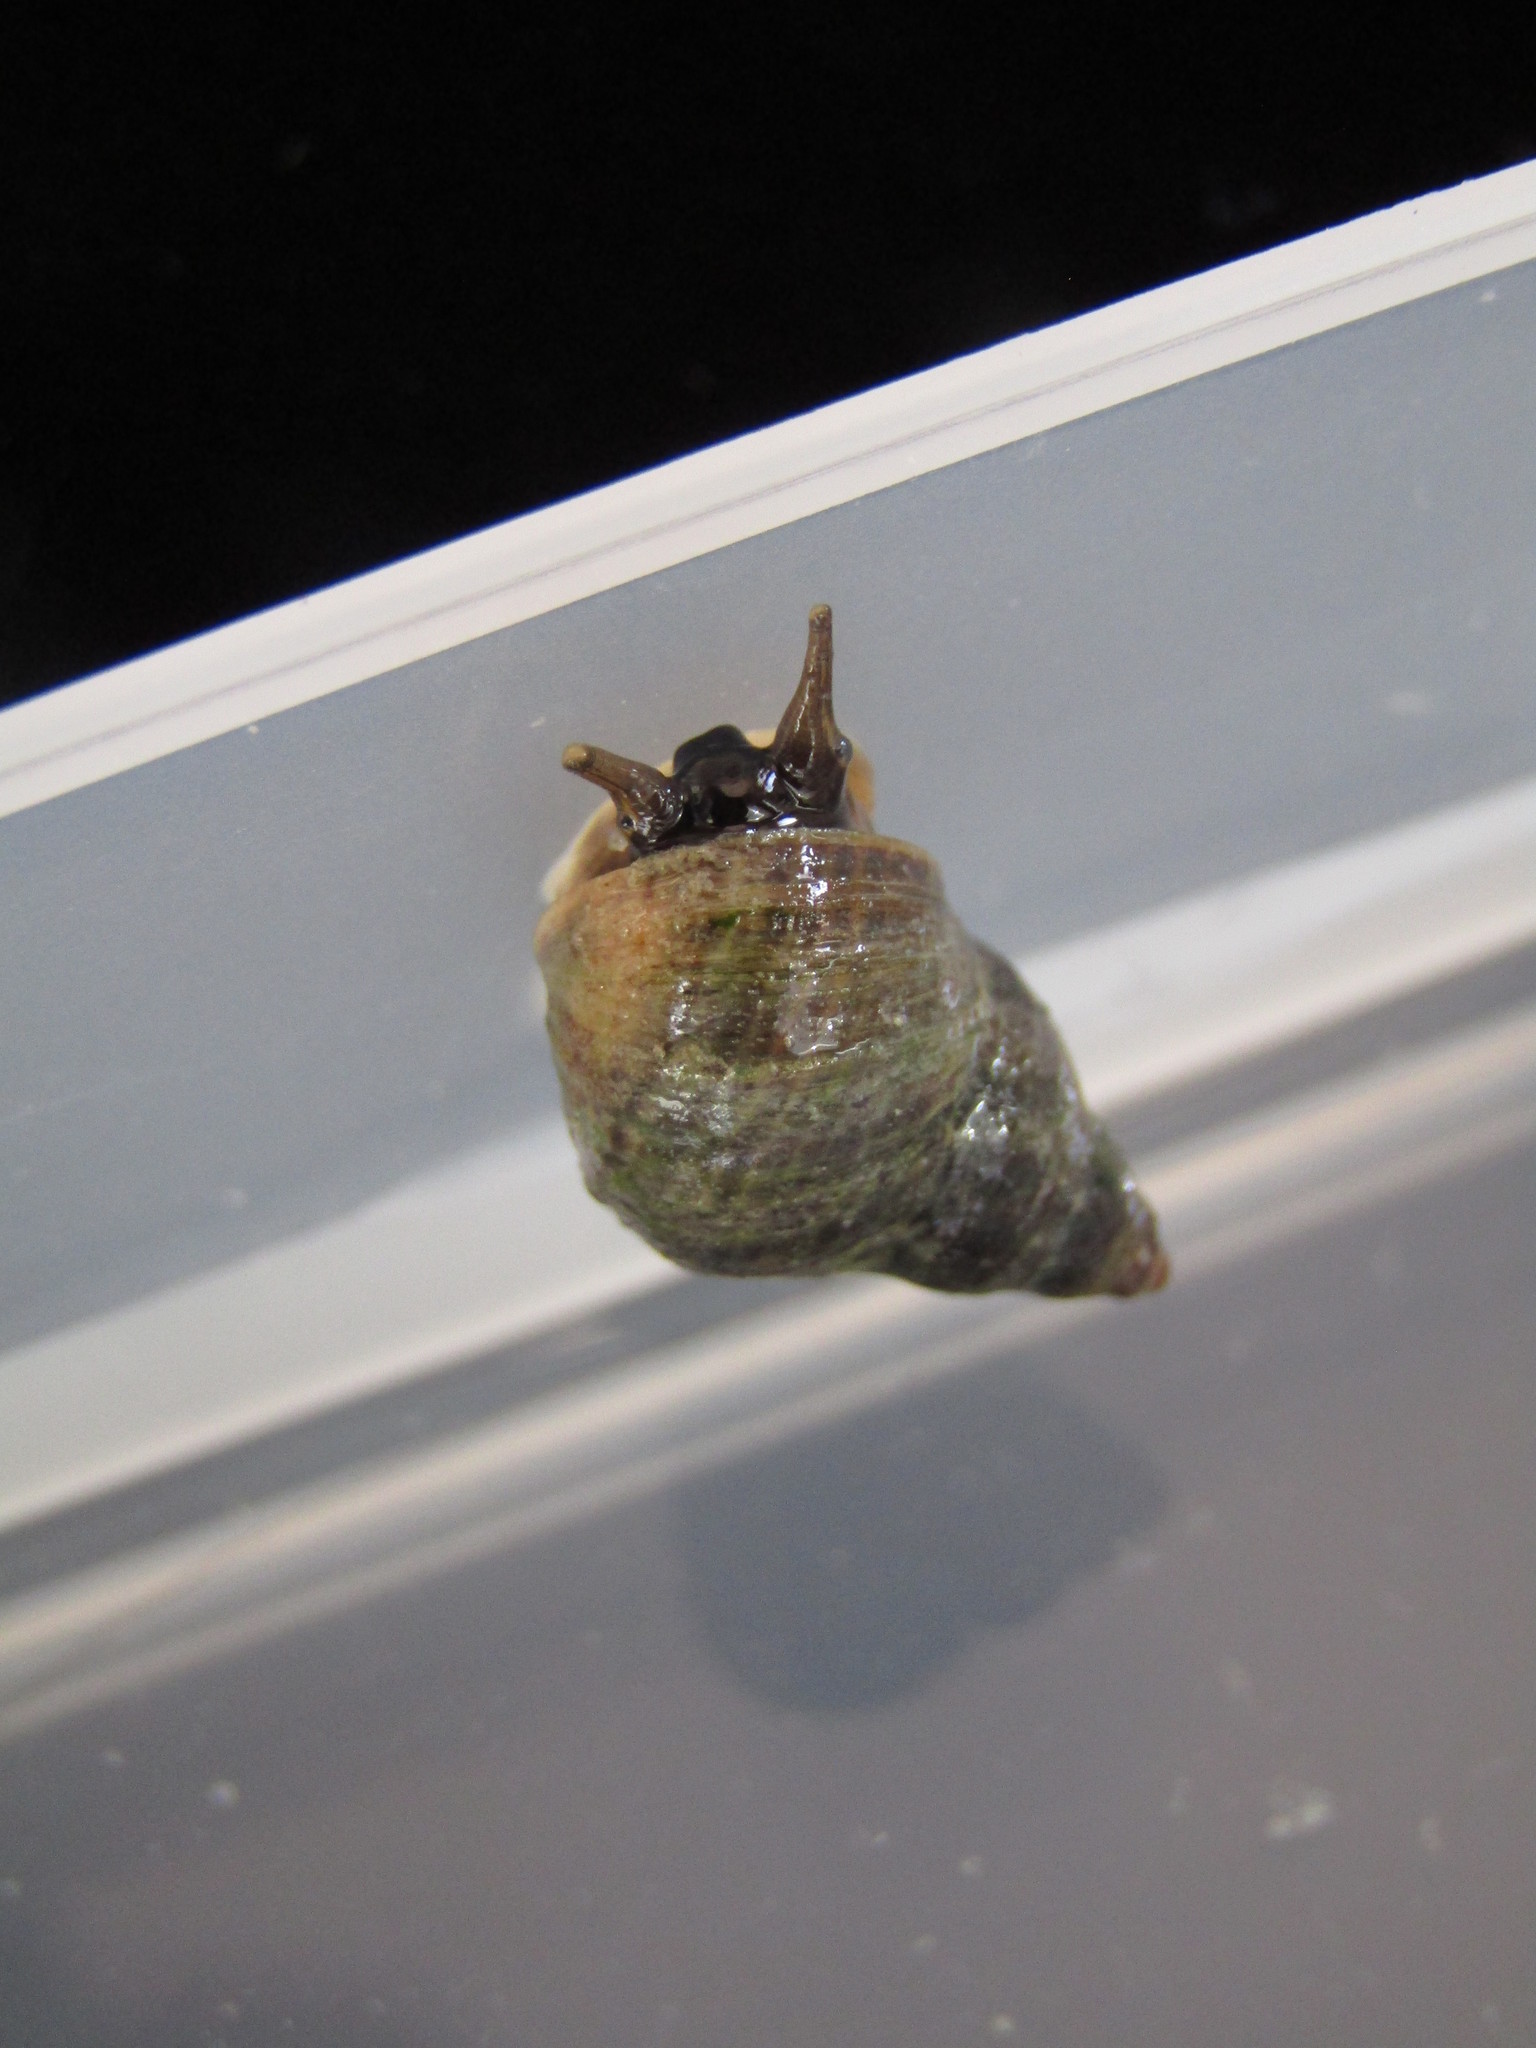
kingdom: Animalia
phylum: Mollusca
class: Gastropoda
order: Littorinimorpha
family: Littorinidae
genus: Austrolittorina
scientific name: Austrolittorina cincta
